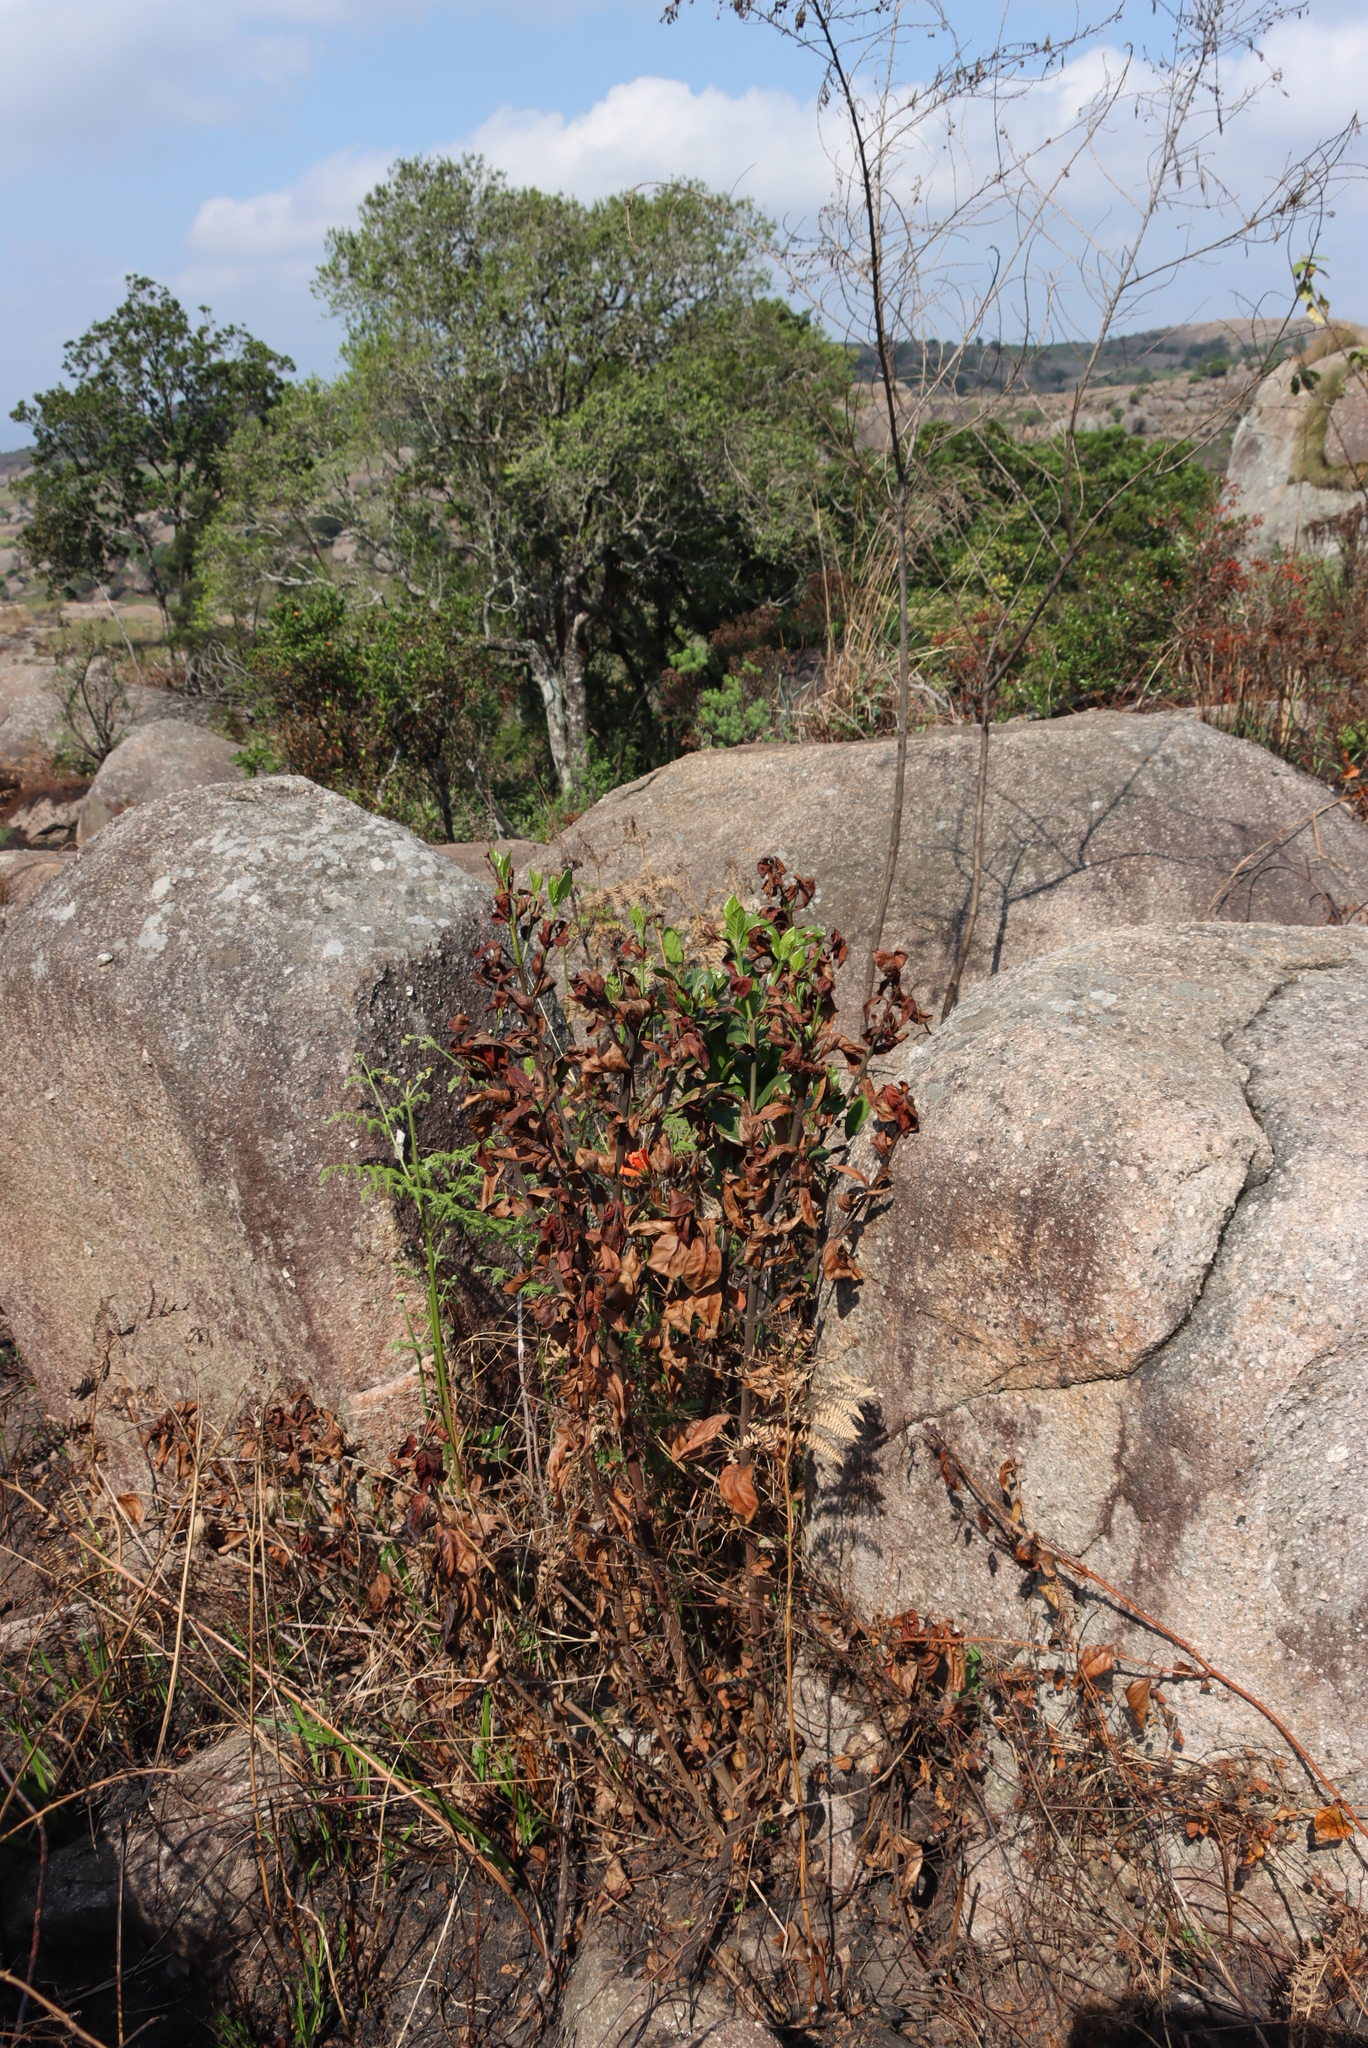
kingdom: Plantae
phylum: Tracheophyta
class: Magnoliopsida
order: Gentianales
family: Rubiaceae
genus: Burchellia
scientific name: Burchellia bubalina
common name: Wild pomegranate
